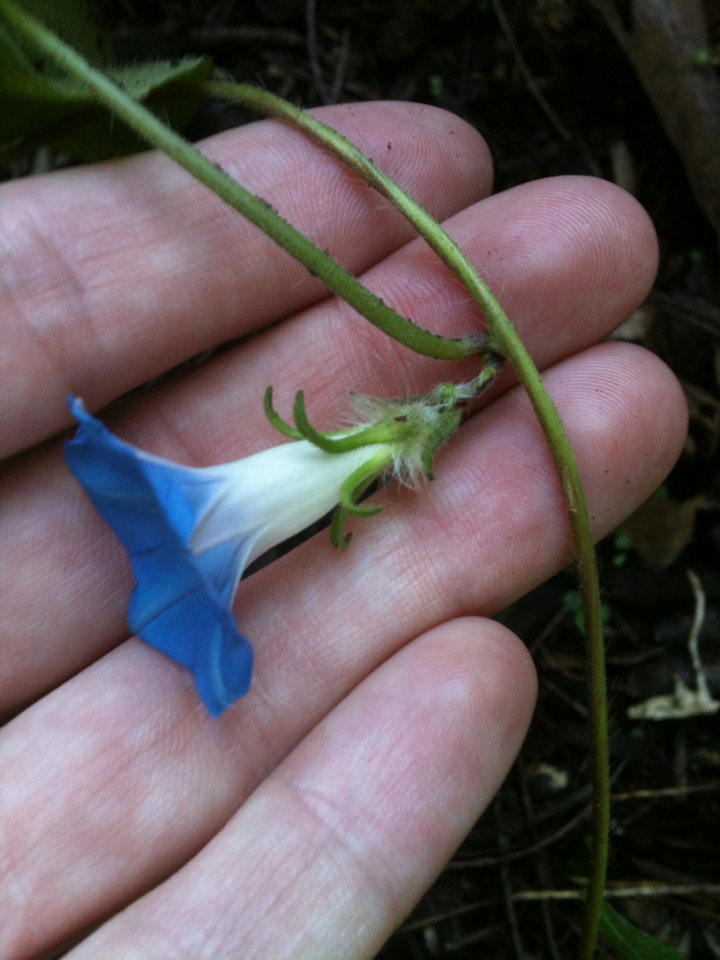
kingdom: Plantae
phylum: Tracheophyta
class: Magnoliopsida
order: Solanales
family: Convolvulaceae
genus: Ipomoea
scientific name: Ipomoea hederacea
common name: Ivy-leaved morning-glory
